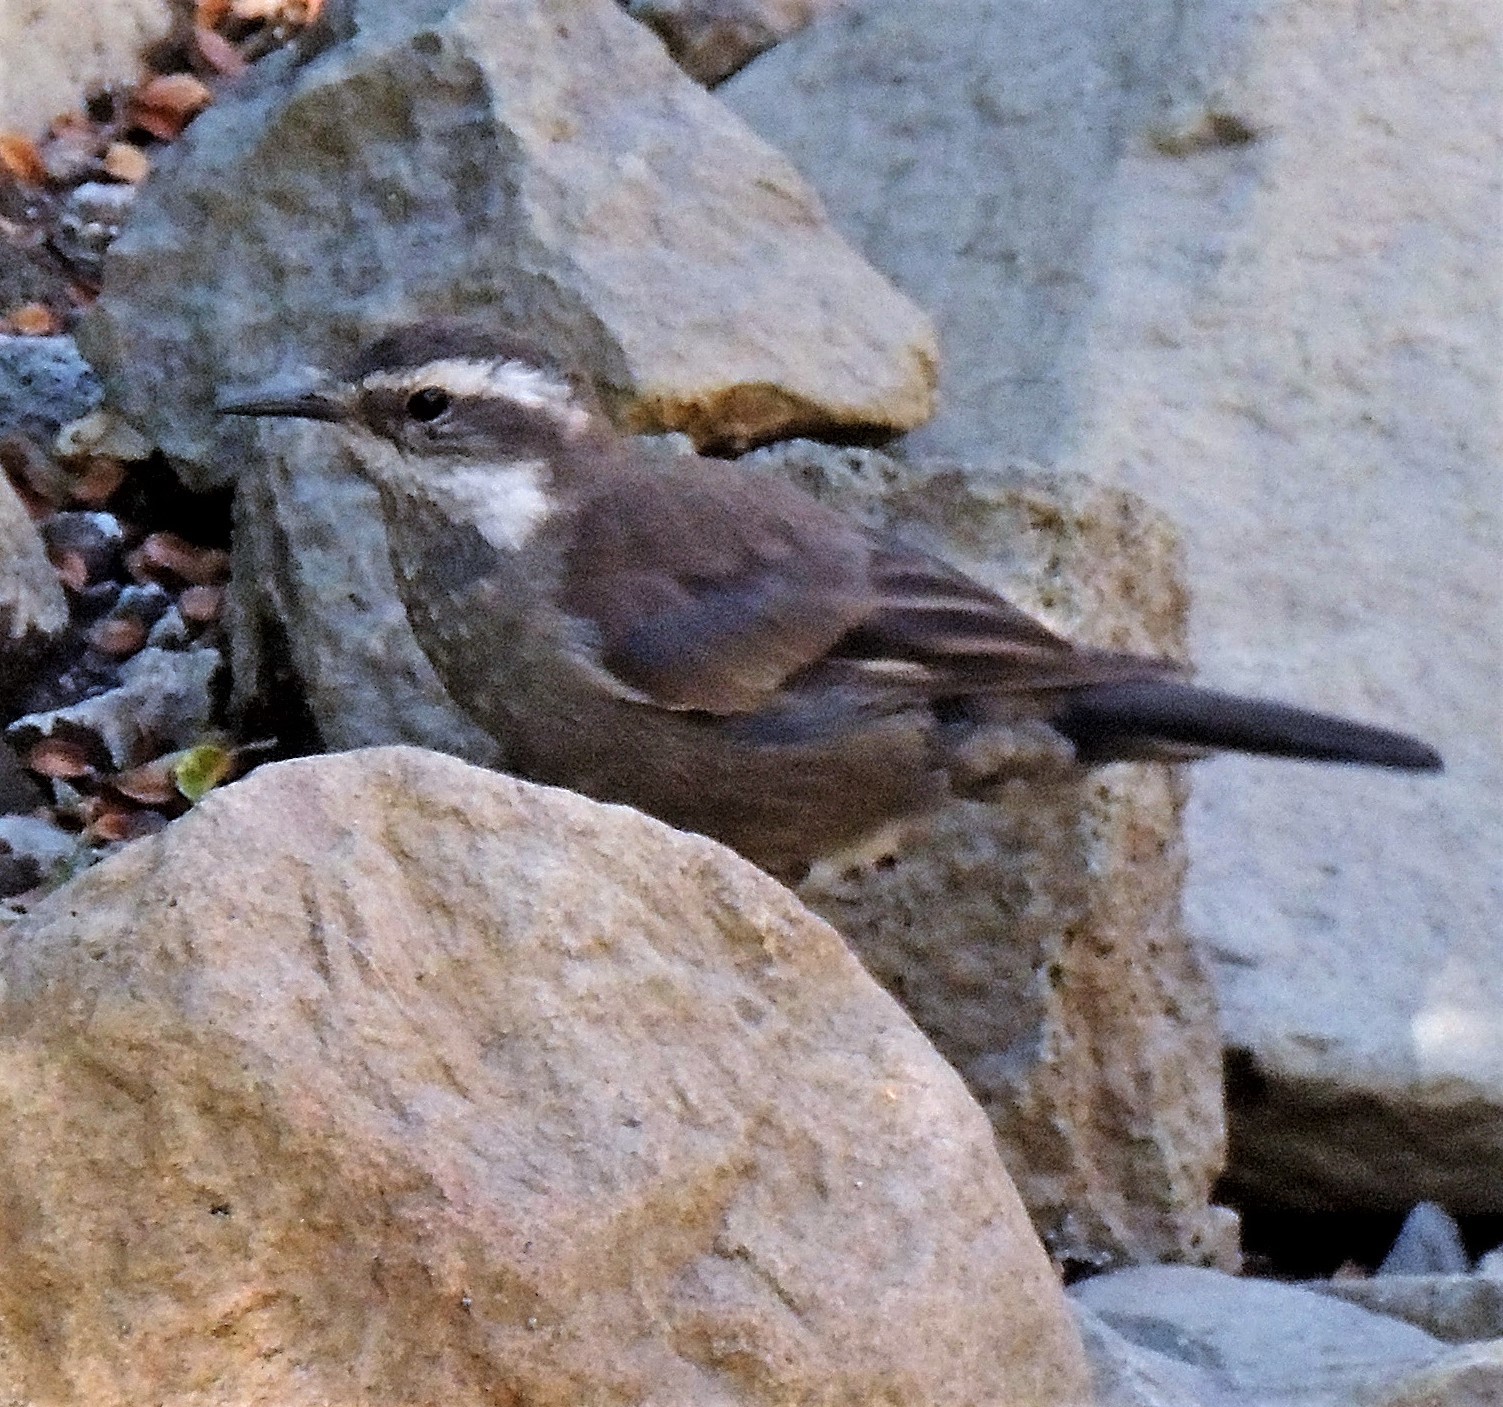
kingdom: Animalia
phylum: Chordata
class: Aves
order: Passeriformes
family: Furnariidae
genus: Cinclodes
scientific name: Cinclodes oustaleti
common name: Grey-flanked cinclodes
